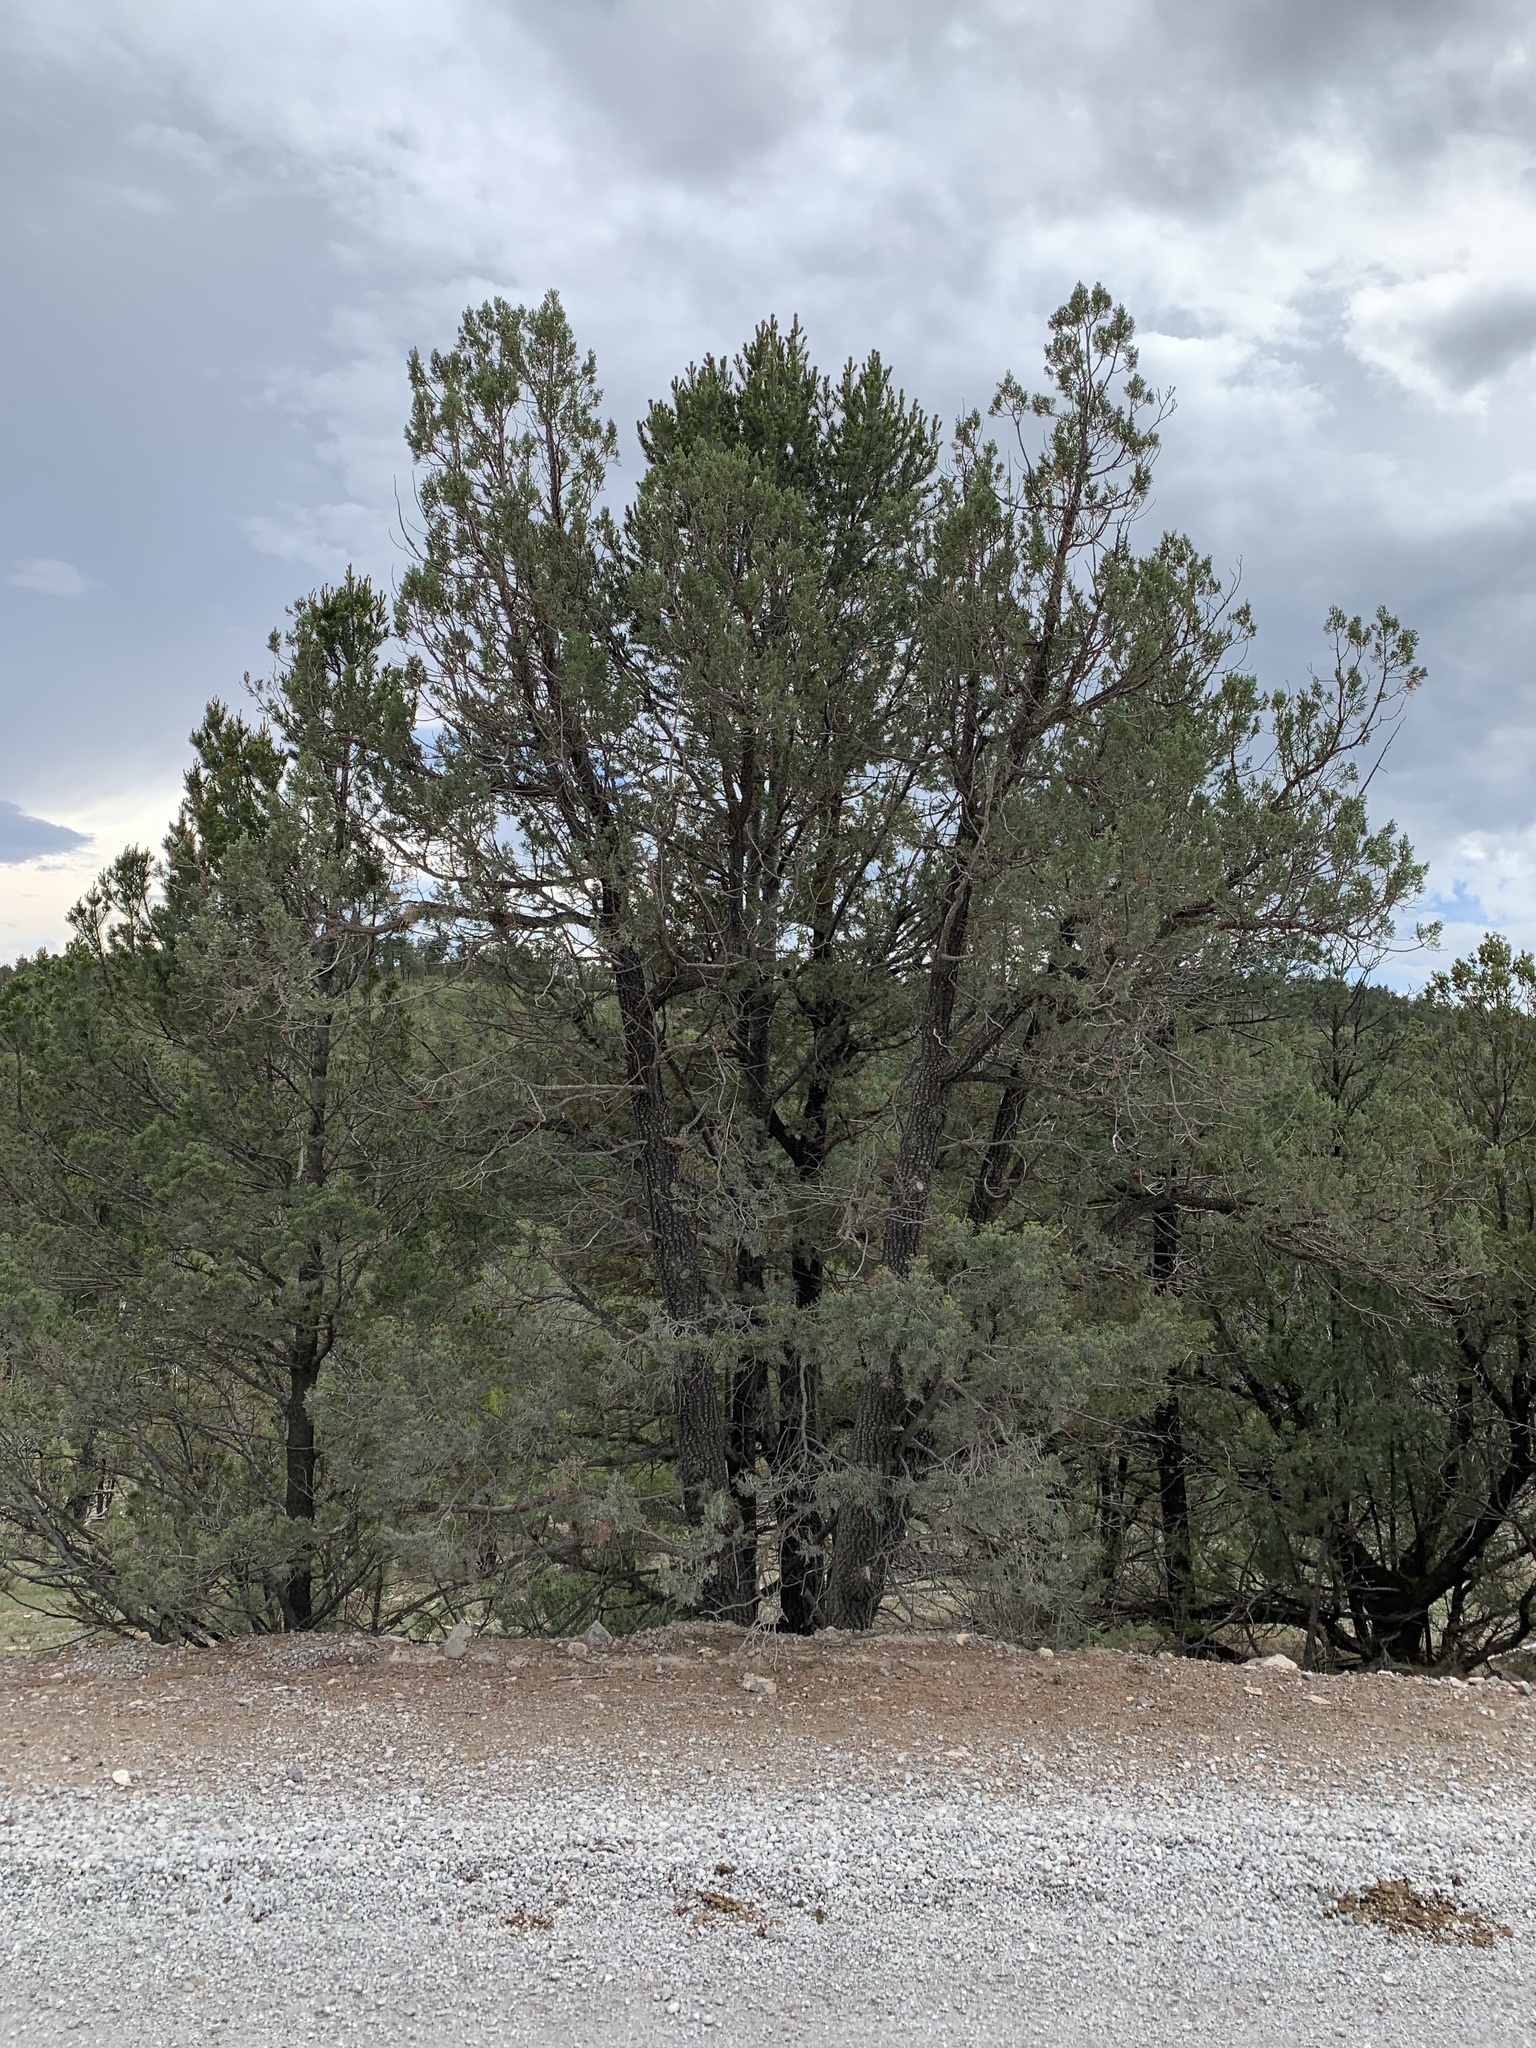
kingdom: Plantae
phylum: Tracheophyta
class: Pinopsida
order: Pinales
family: Cupressaceae
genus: Juniperus
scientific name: Juniperus deppeana
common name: Alligator juniper
